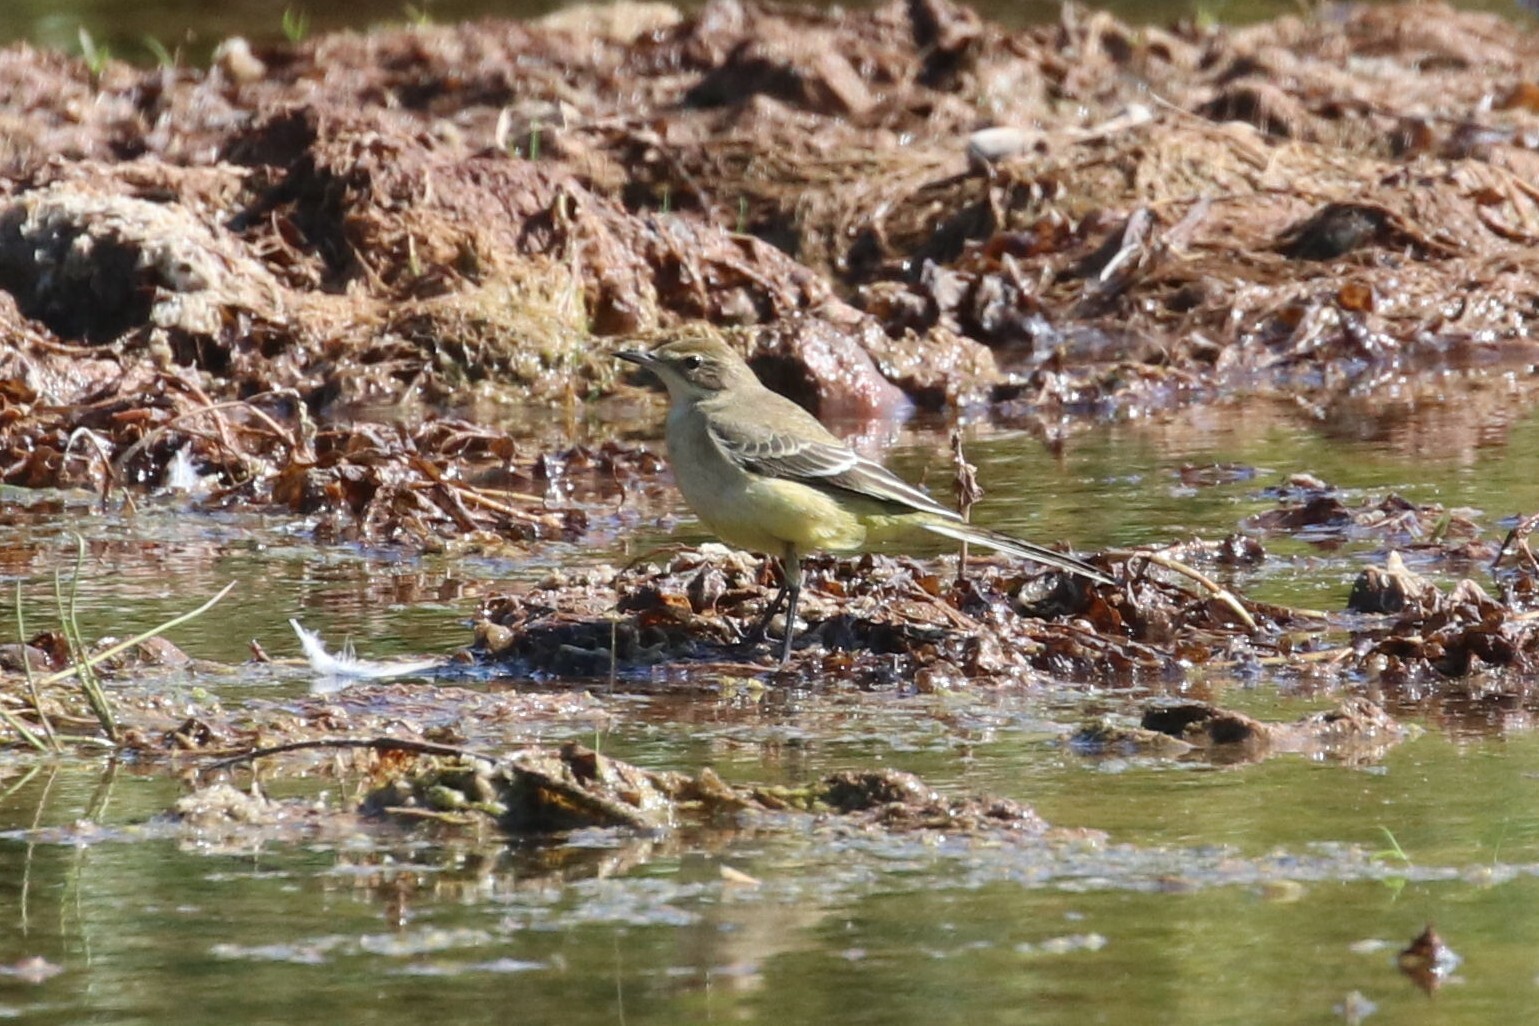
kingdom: Animalia
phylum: Chordata
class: Aves
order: Passeriformes
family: Motacillidae
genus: Motacilla
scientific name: Motacilla flava
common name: Western yellow wagtail
